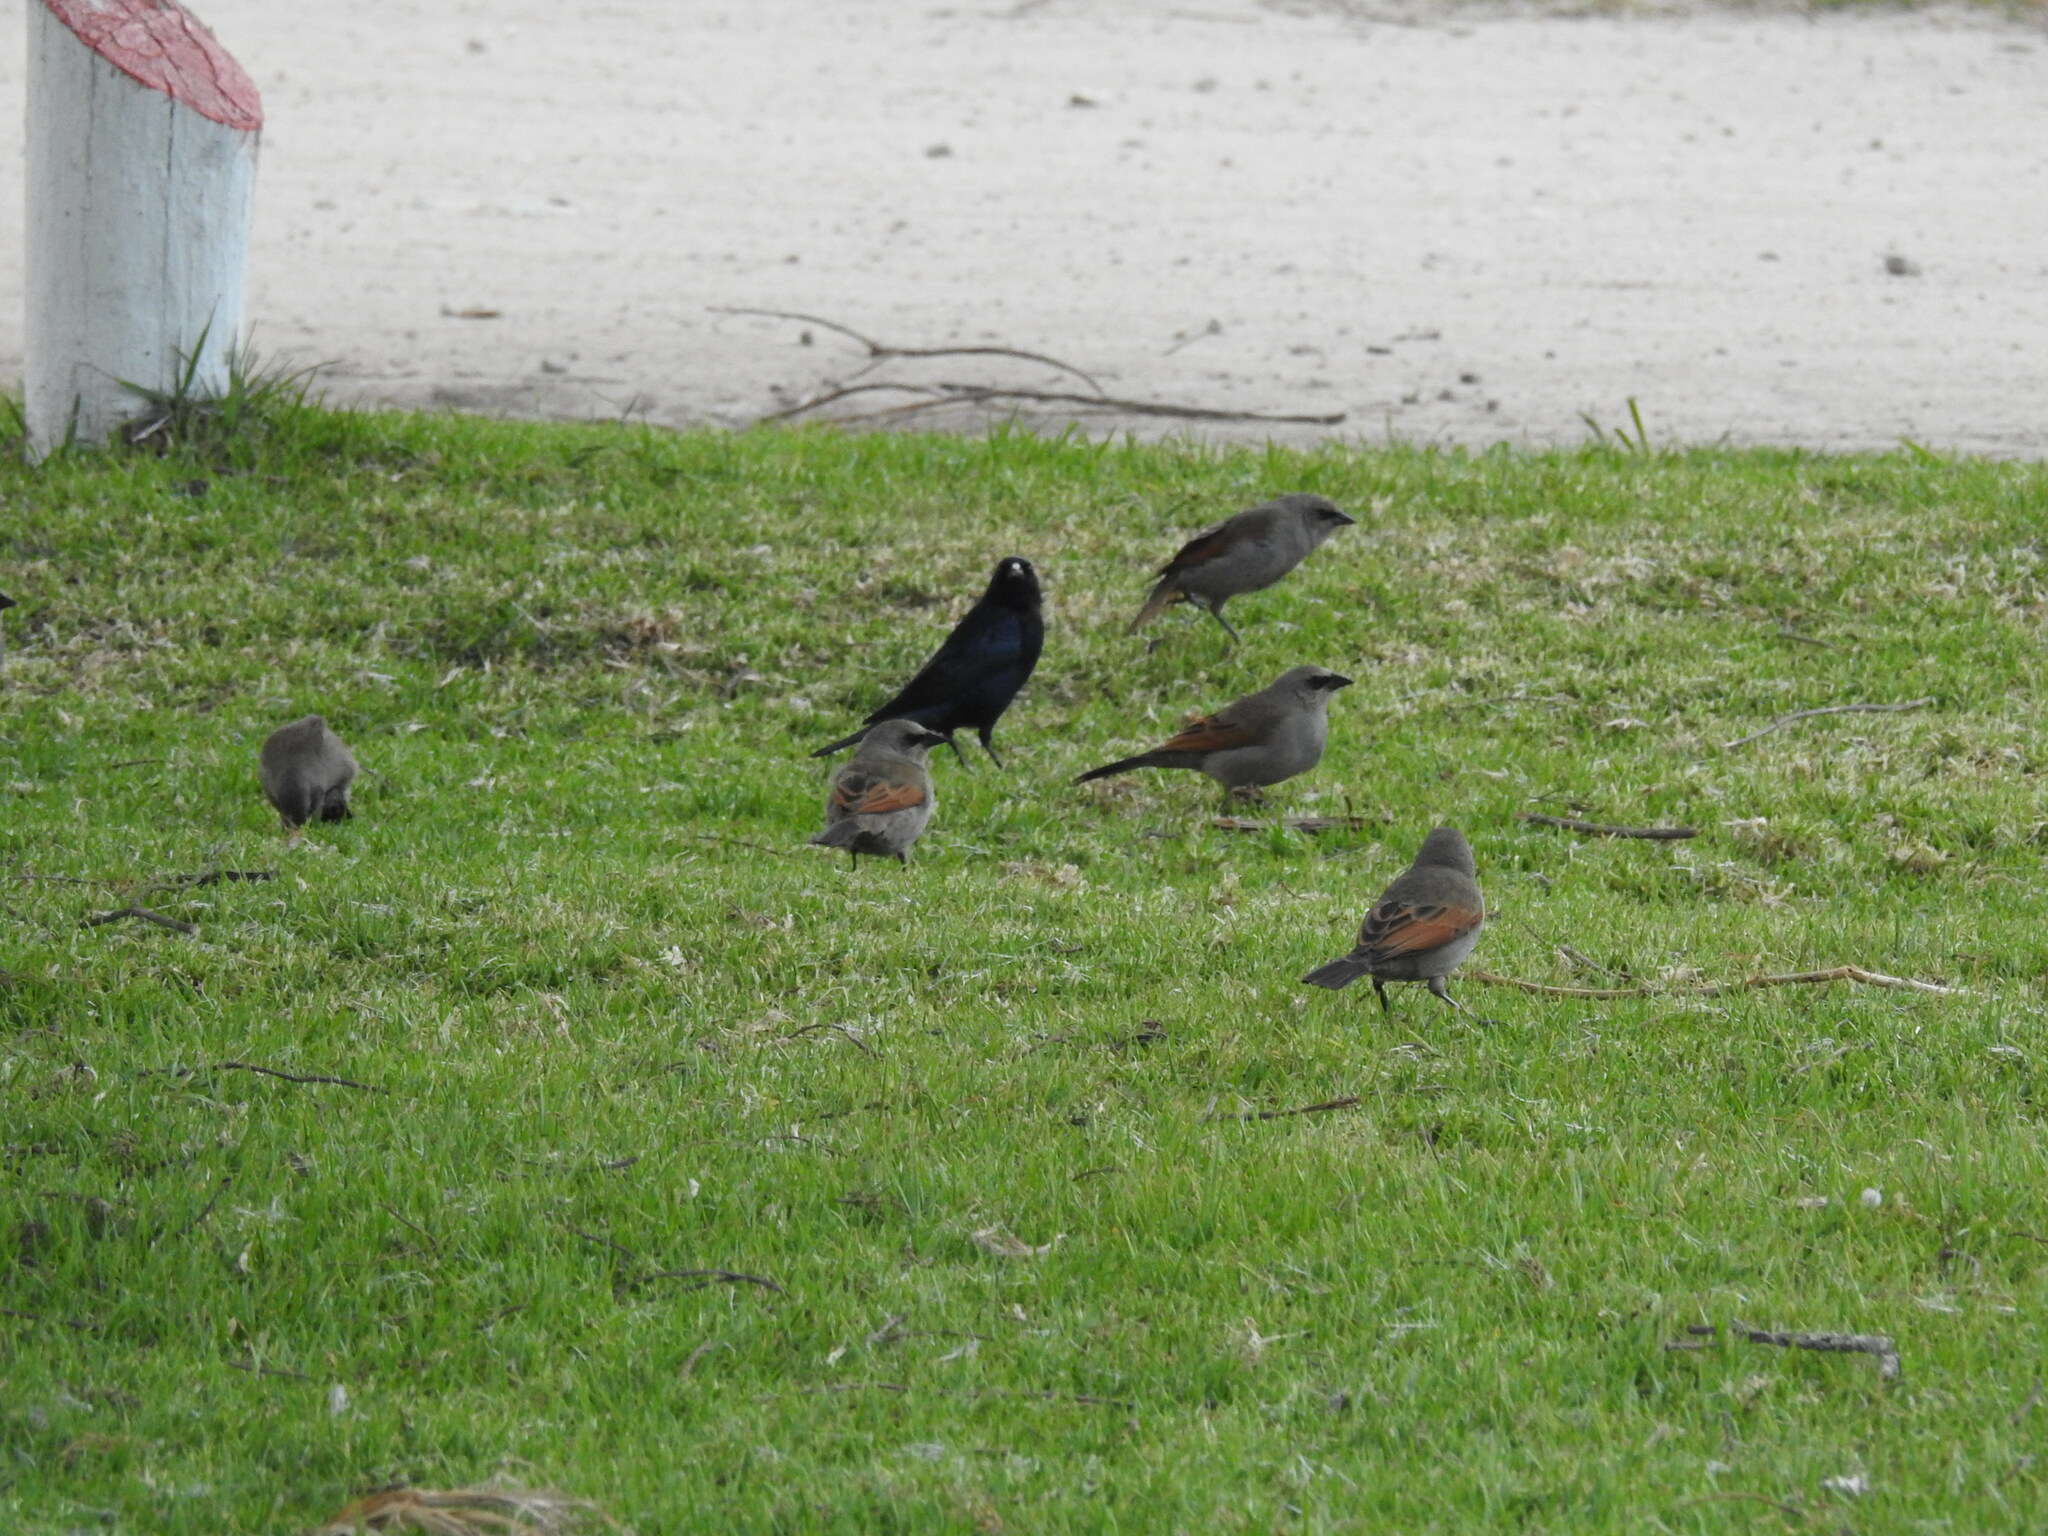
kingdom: Animalia
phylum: Chordata
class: Aves
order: Passeriformes
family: Icteridae
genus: Agelaioides
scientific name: Agelaioides badius
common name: Baywing
